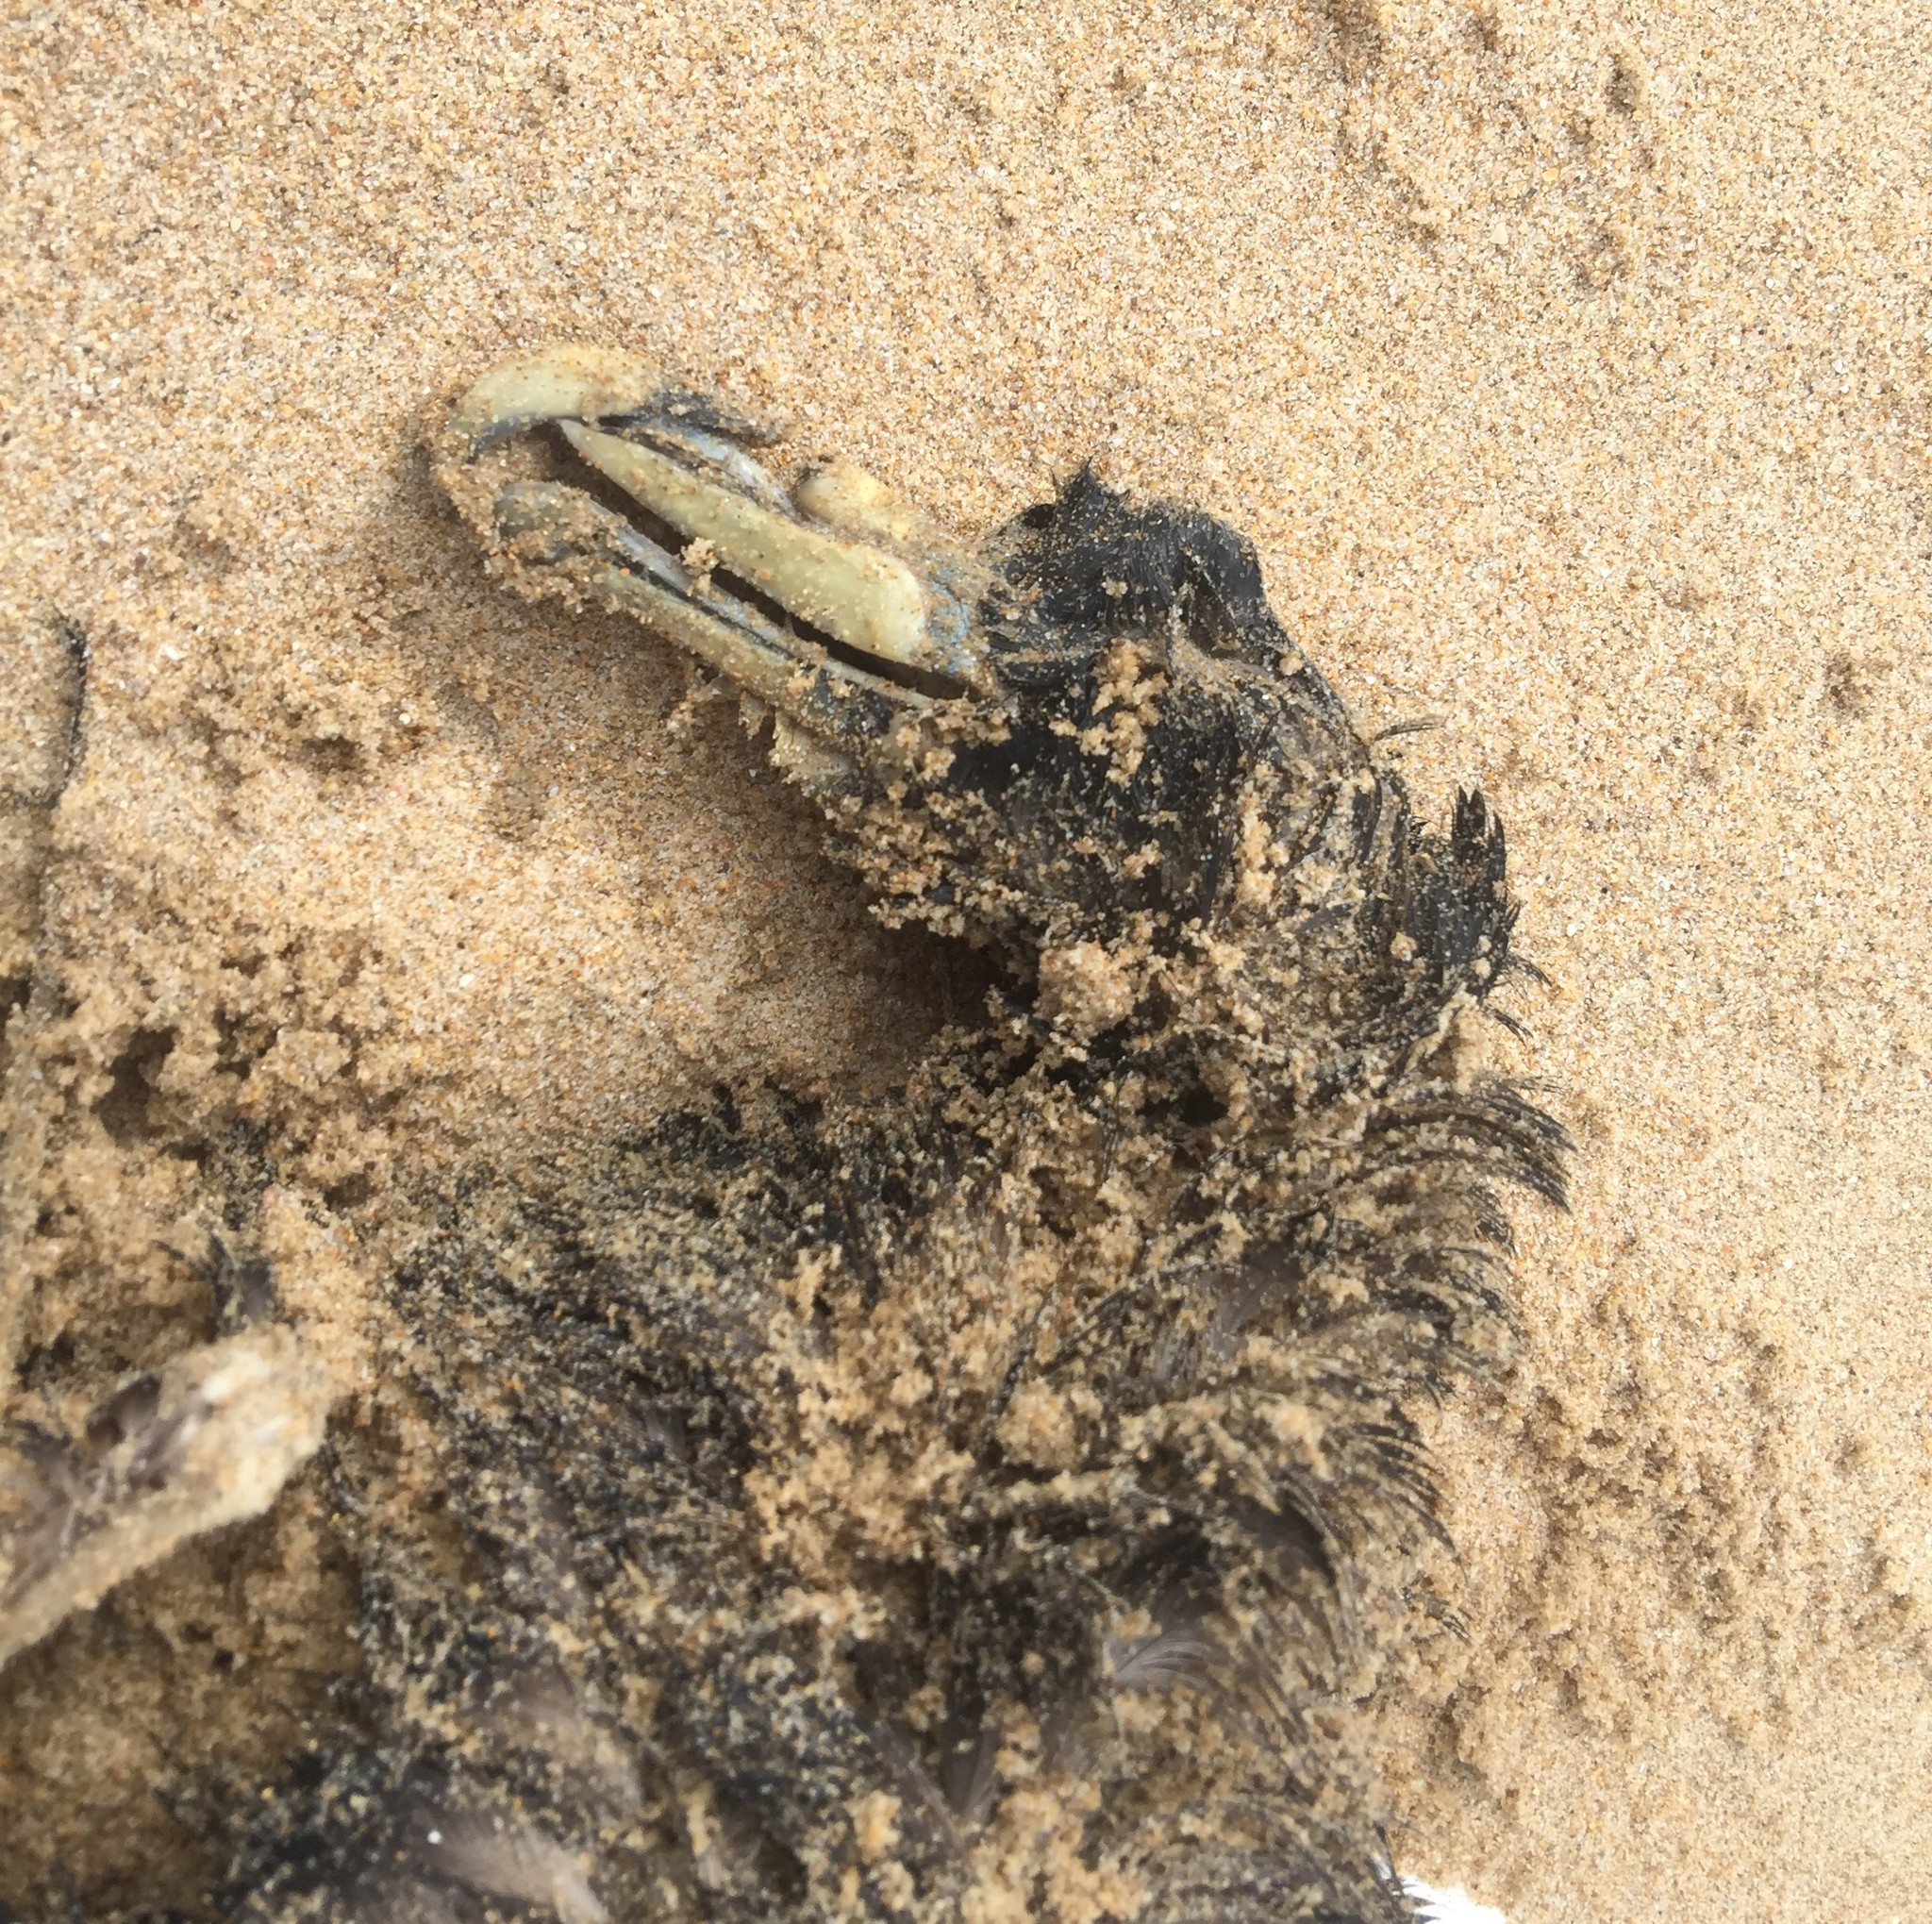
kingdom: Animalia
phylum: Chordata
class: Aves
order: Procellariiformes
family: Procellariidae
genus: Procellaria
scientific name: Procellaria aequinoctialis
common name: White-chinned petrel
